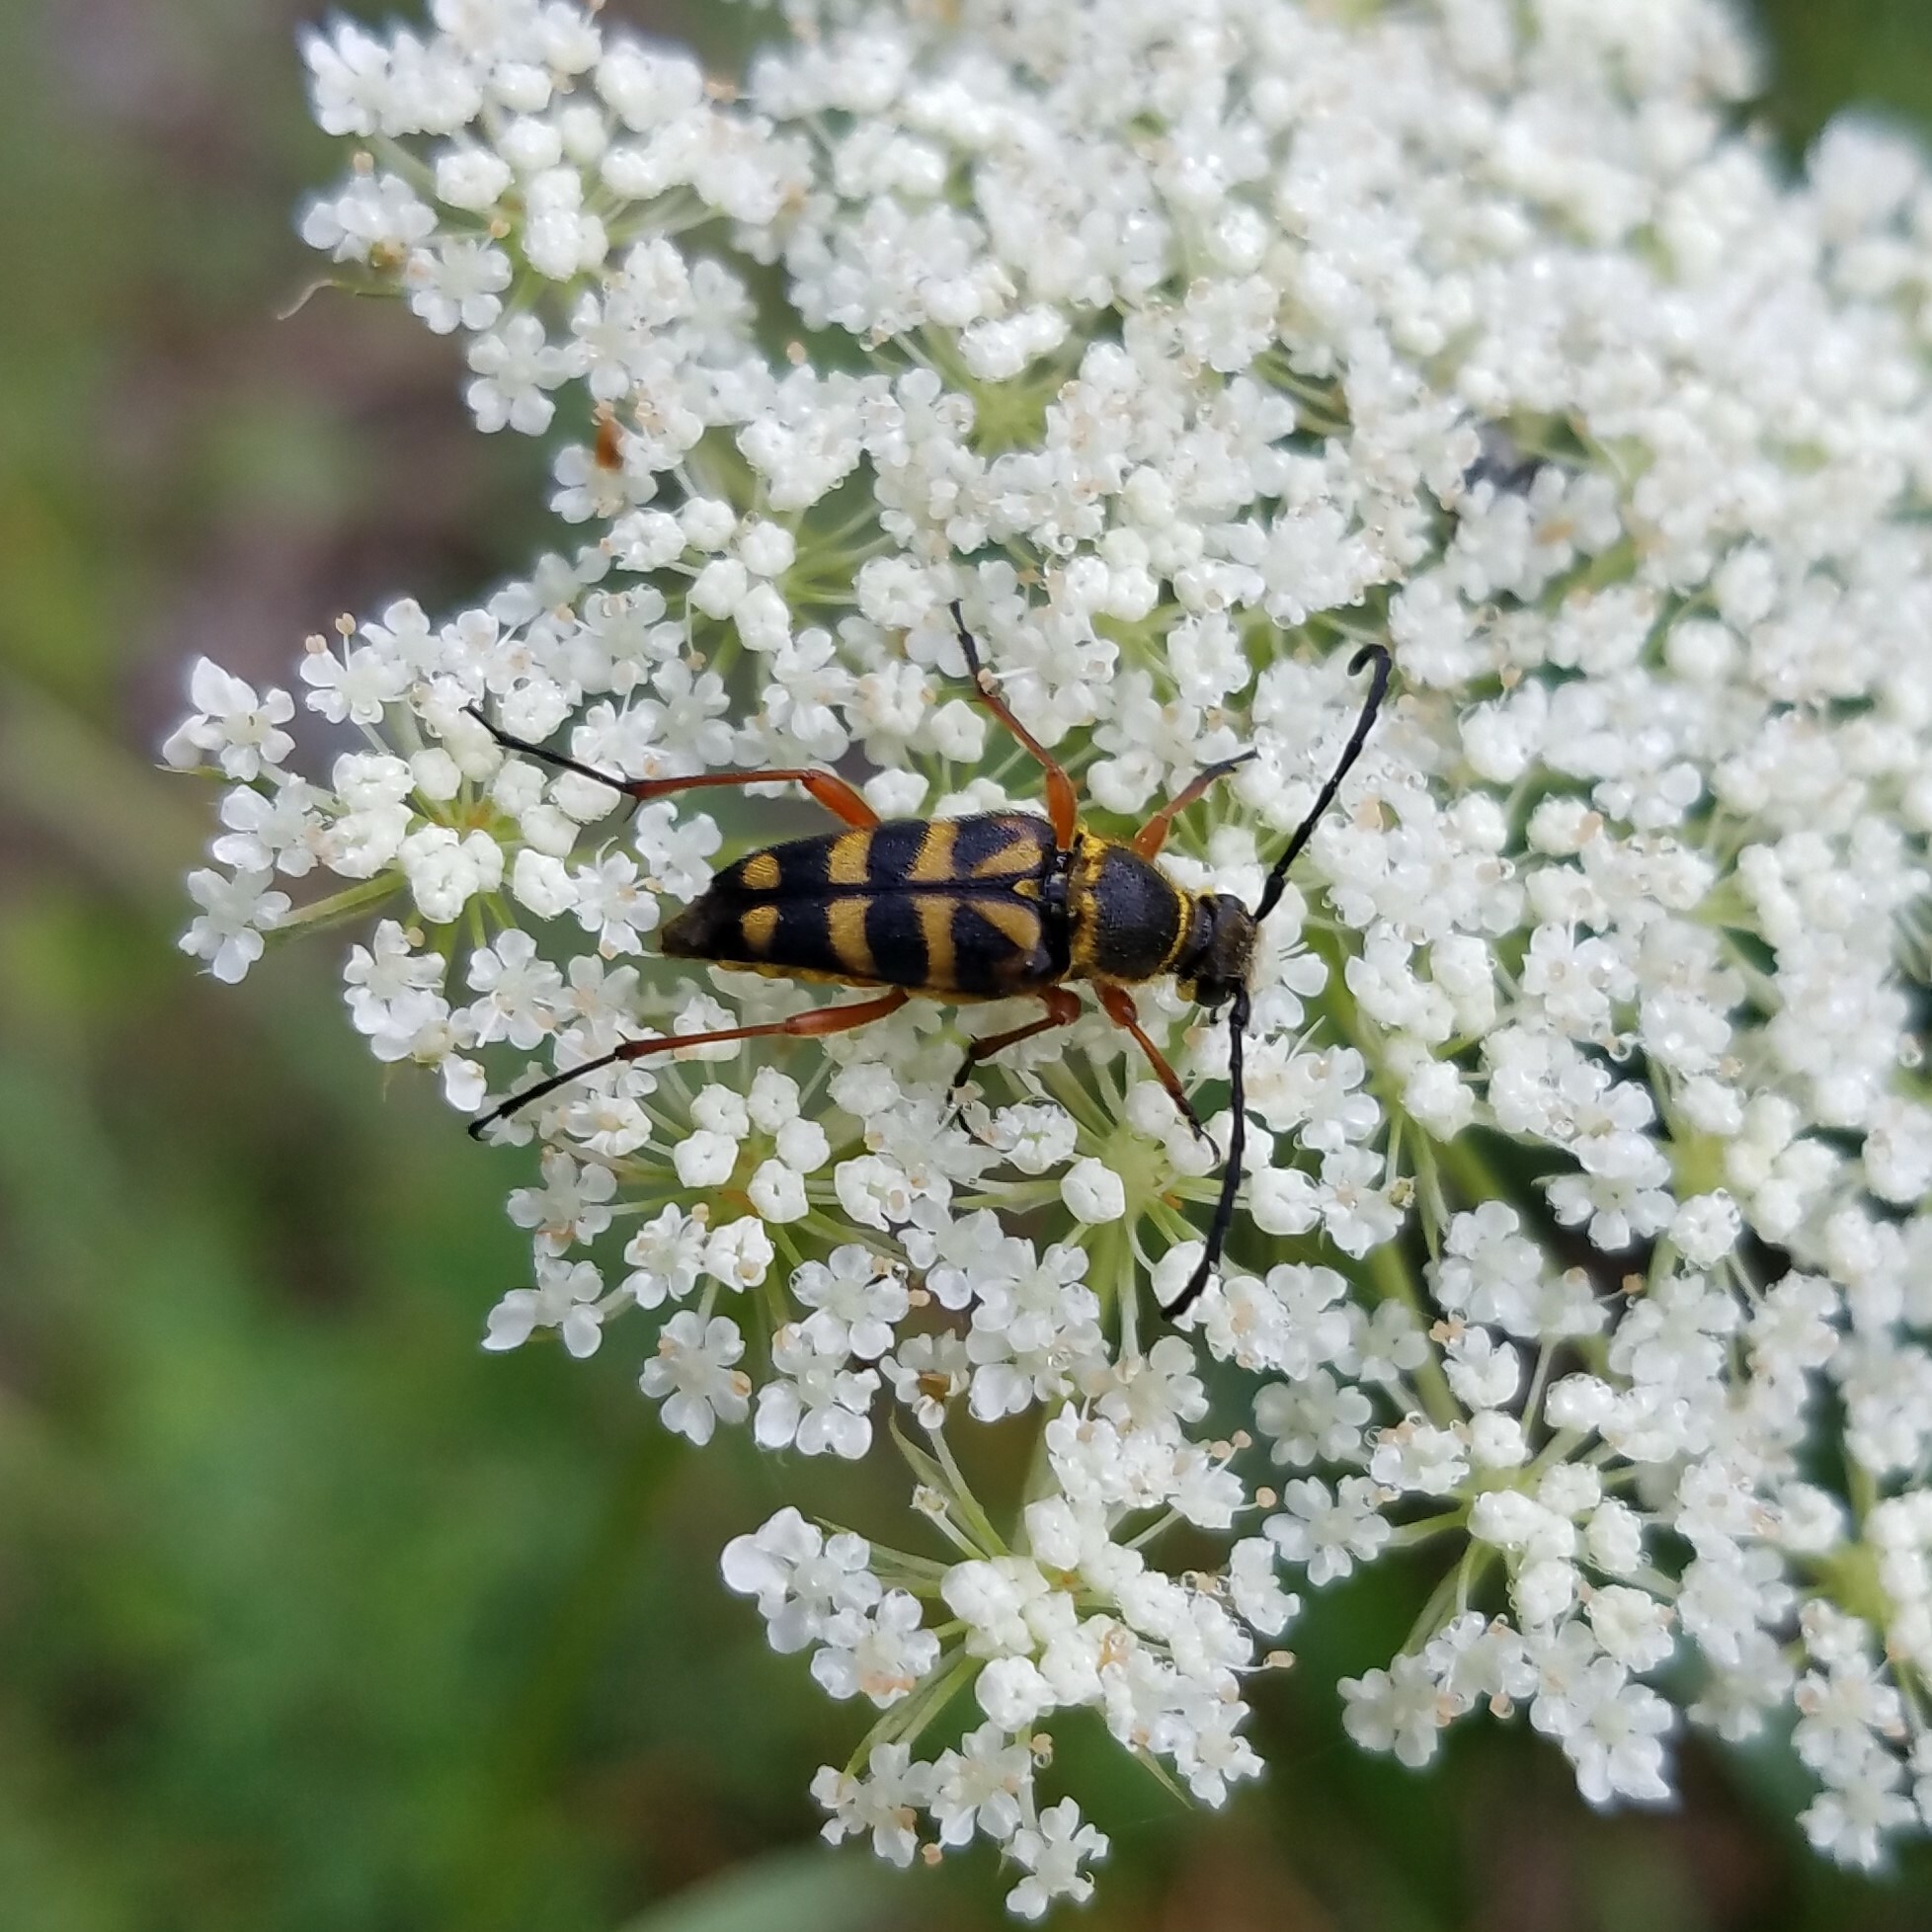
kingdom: Animalia
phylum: Arthropoda
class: Insecta
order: Coleoptera
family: Cerambycidae
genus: Typocerus
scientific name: Typocerus zebra
